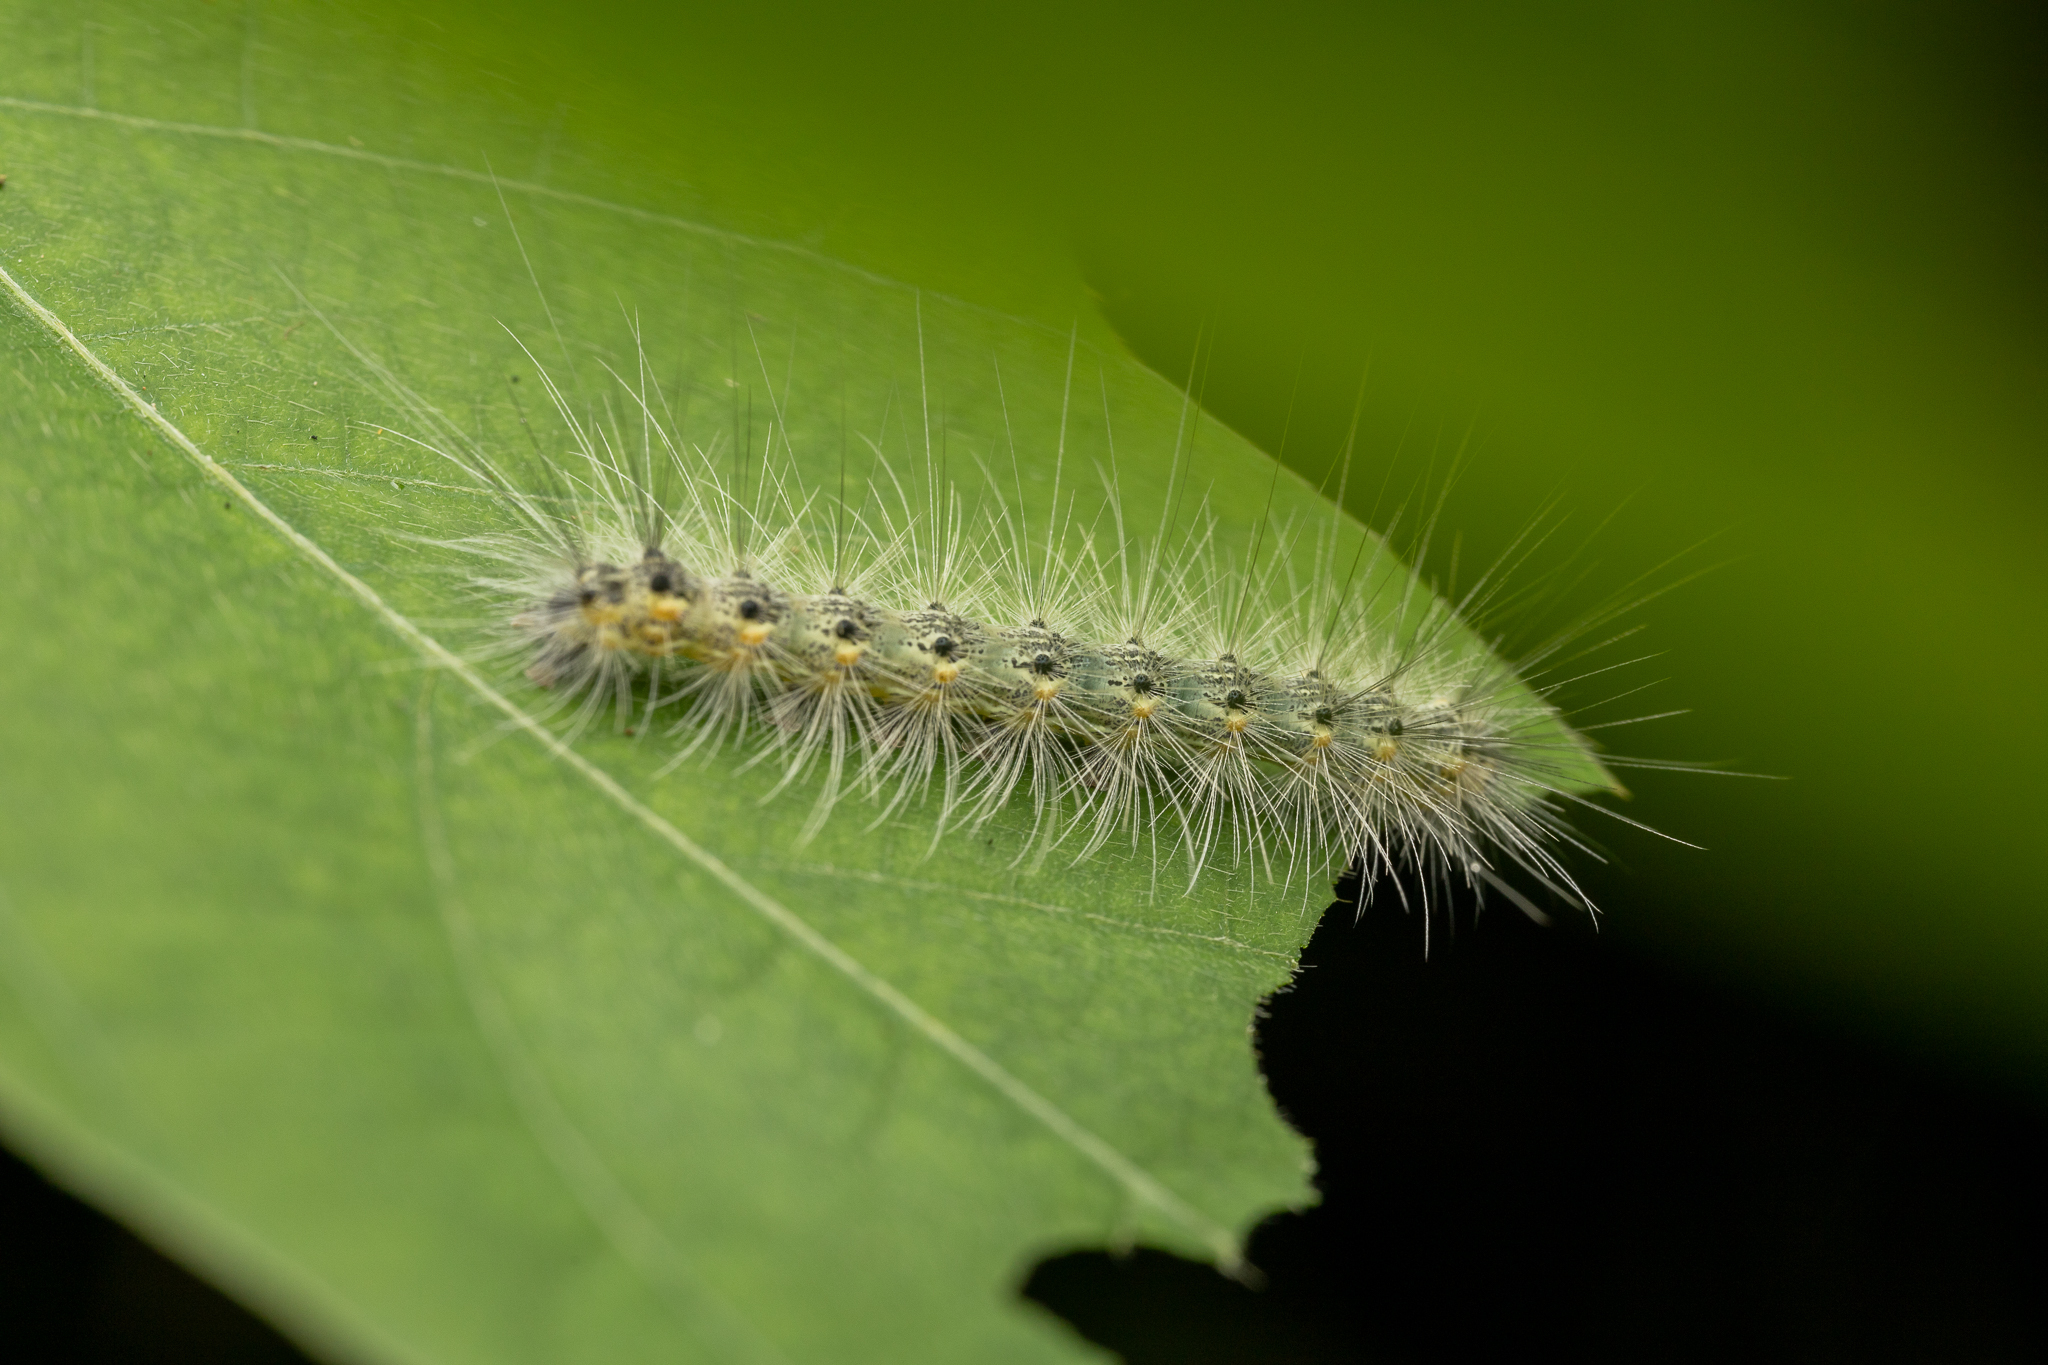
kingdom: Animalia
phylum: Arthropoda
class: Insecta
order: Lepidoptera
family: Erebidae
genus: Hyphantria
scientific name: Hyphantria cunea
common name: American white moth
